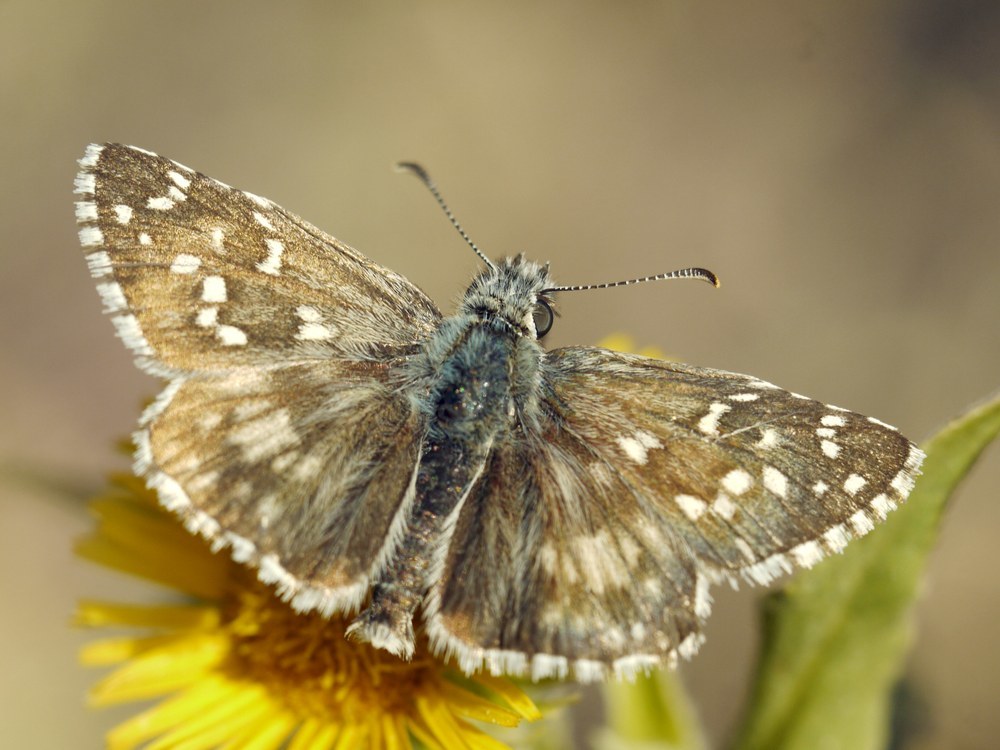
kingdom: Animalia
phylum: Arthropoda
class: Insecta
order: Lepidoptera
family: Hesperiidae
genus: Pyrgus
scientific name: Pyrgus armoricanus
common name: Oberthür's grizzled skipper
